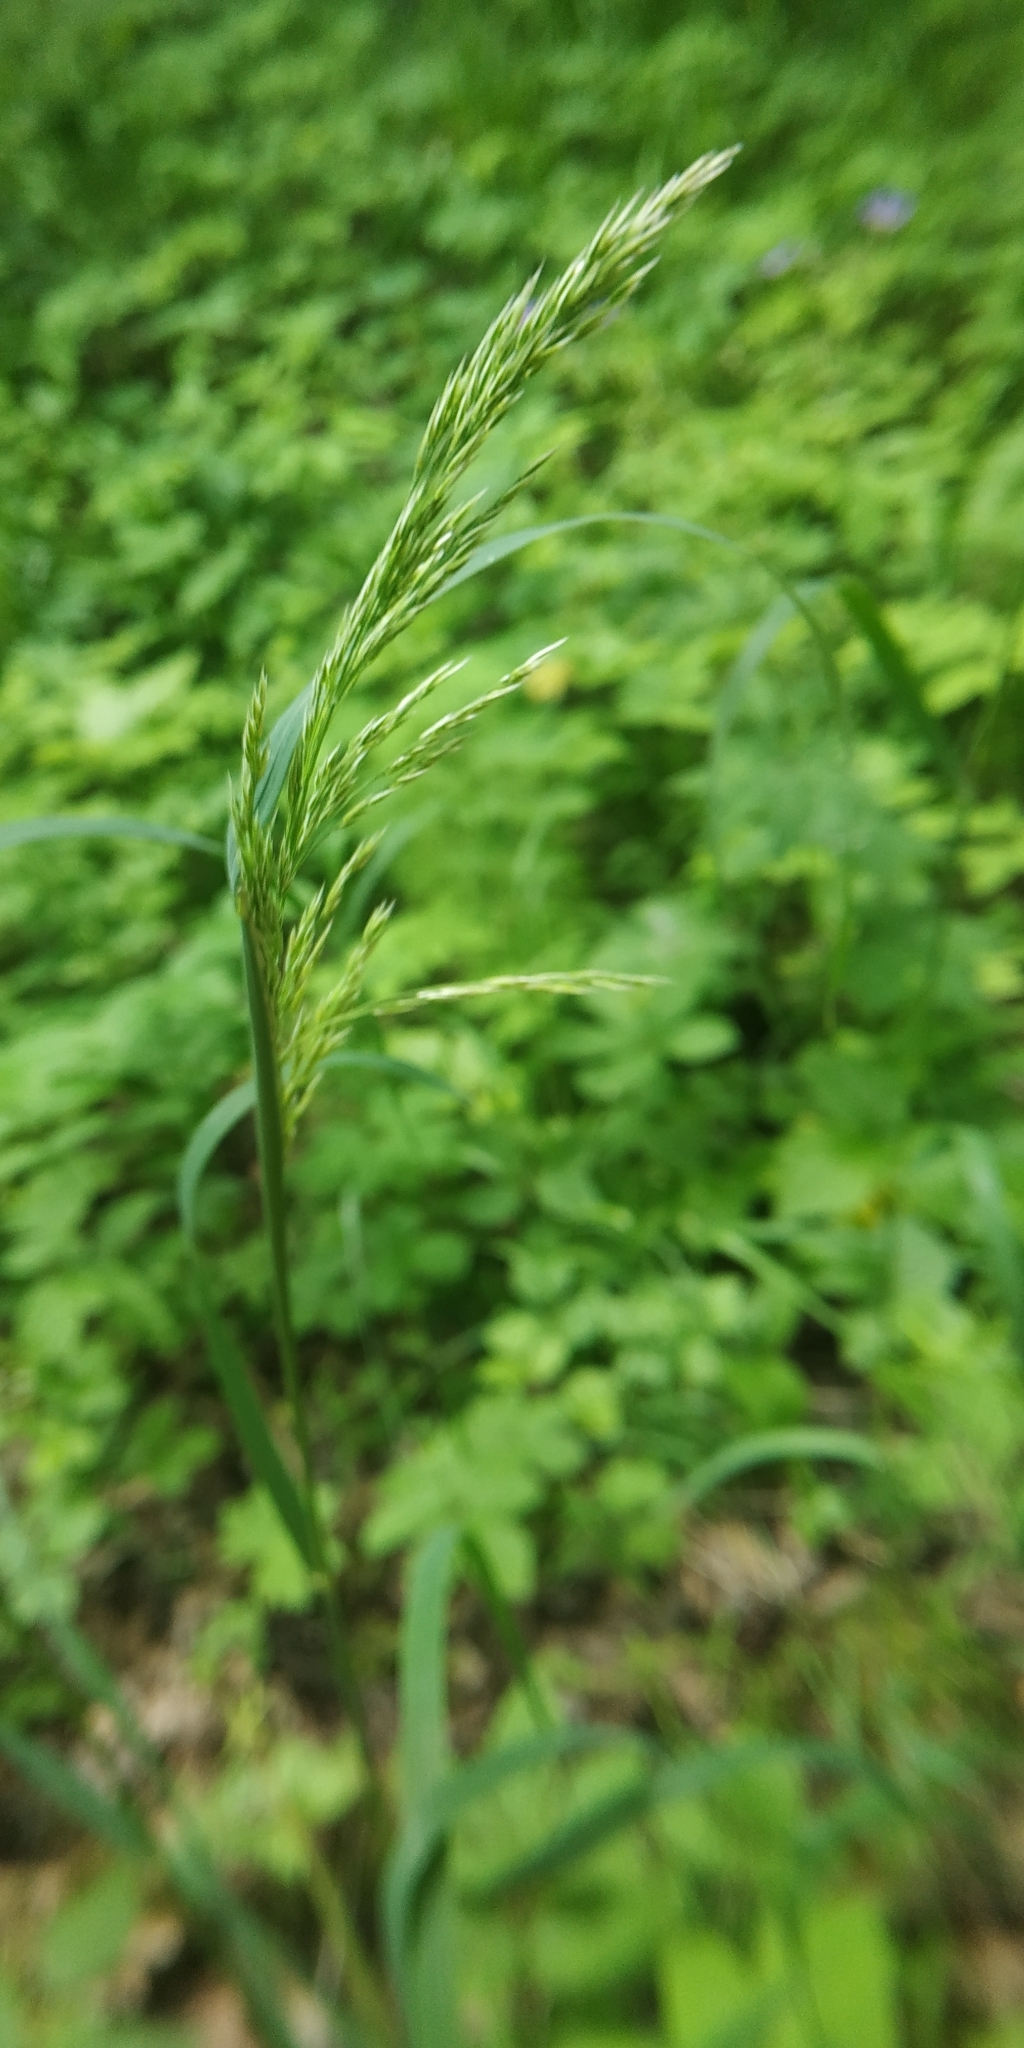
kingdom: Plantae
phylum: Tracheophyta
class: Liliopsida
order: Poales
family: Poaceae
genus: Molinia
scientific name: Molinia caerulea
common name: Purple moor-grass
